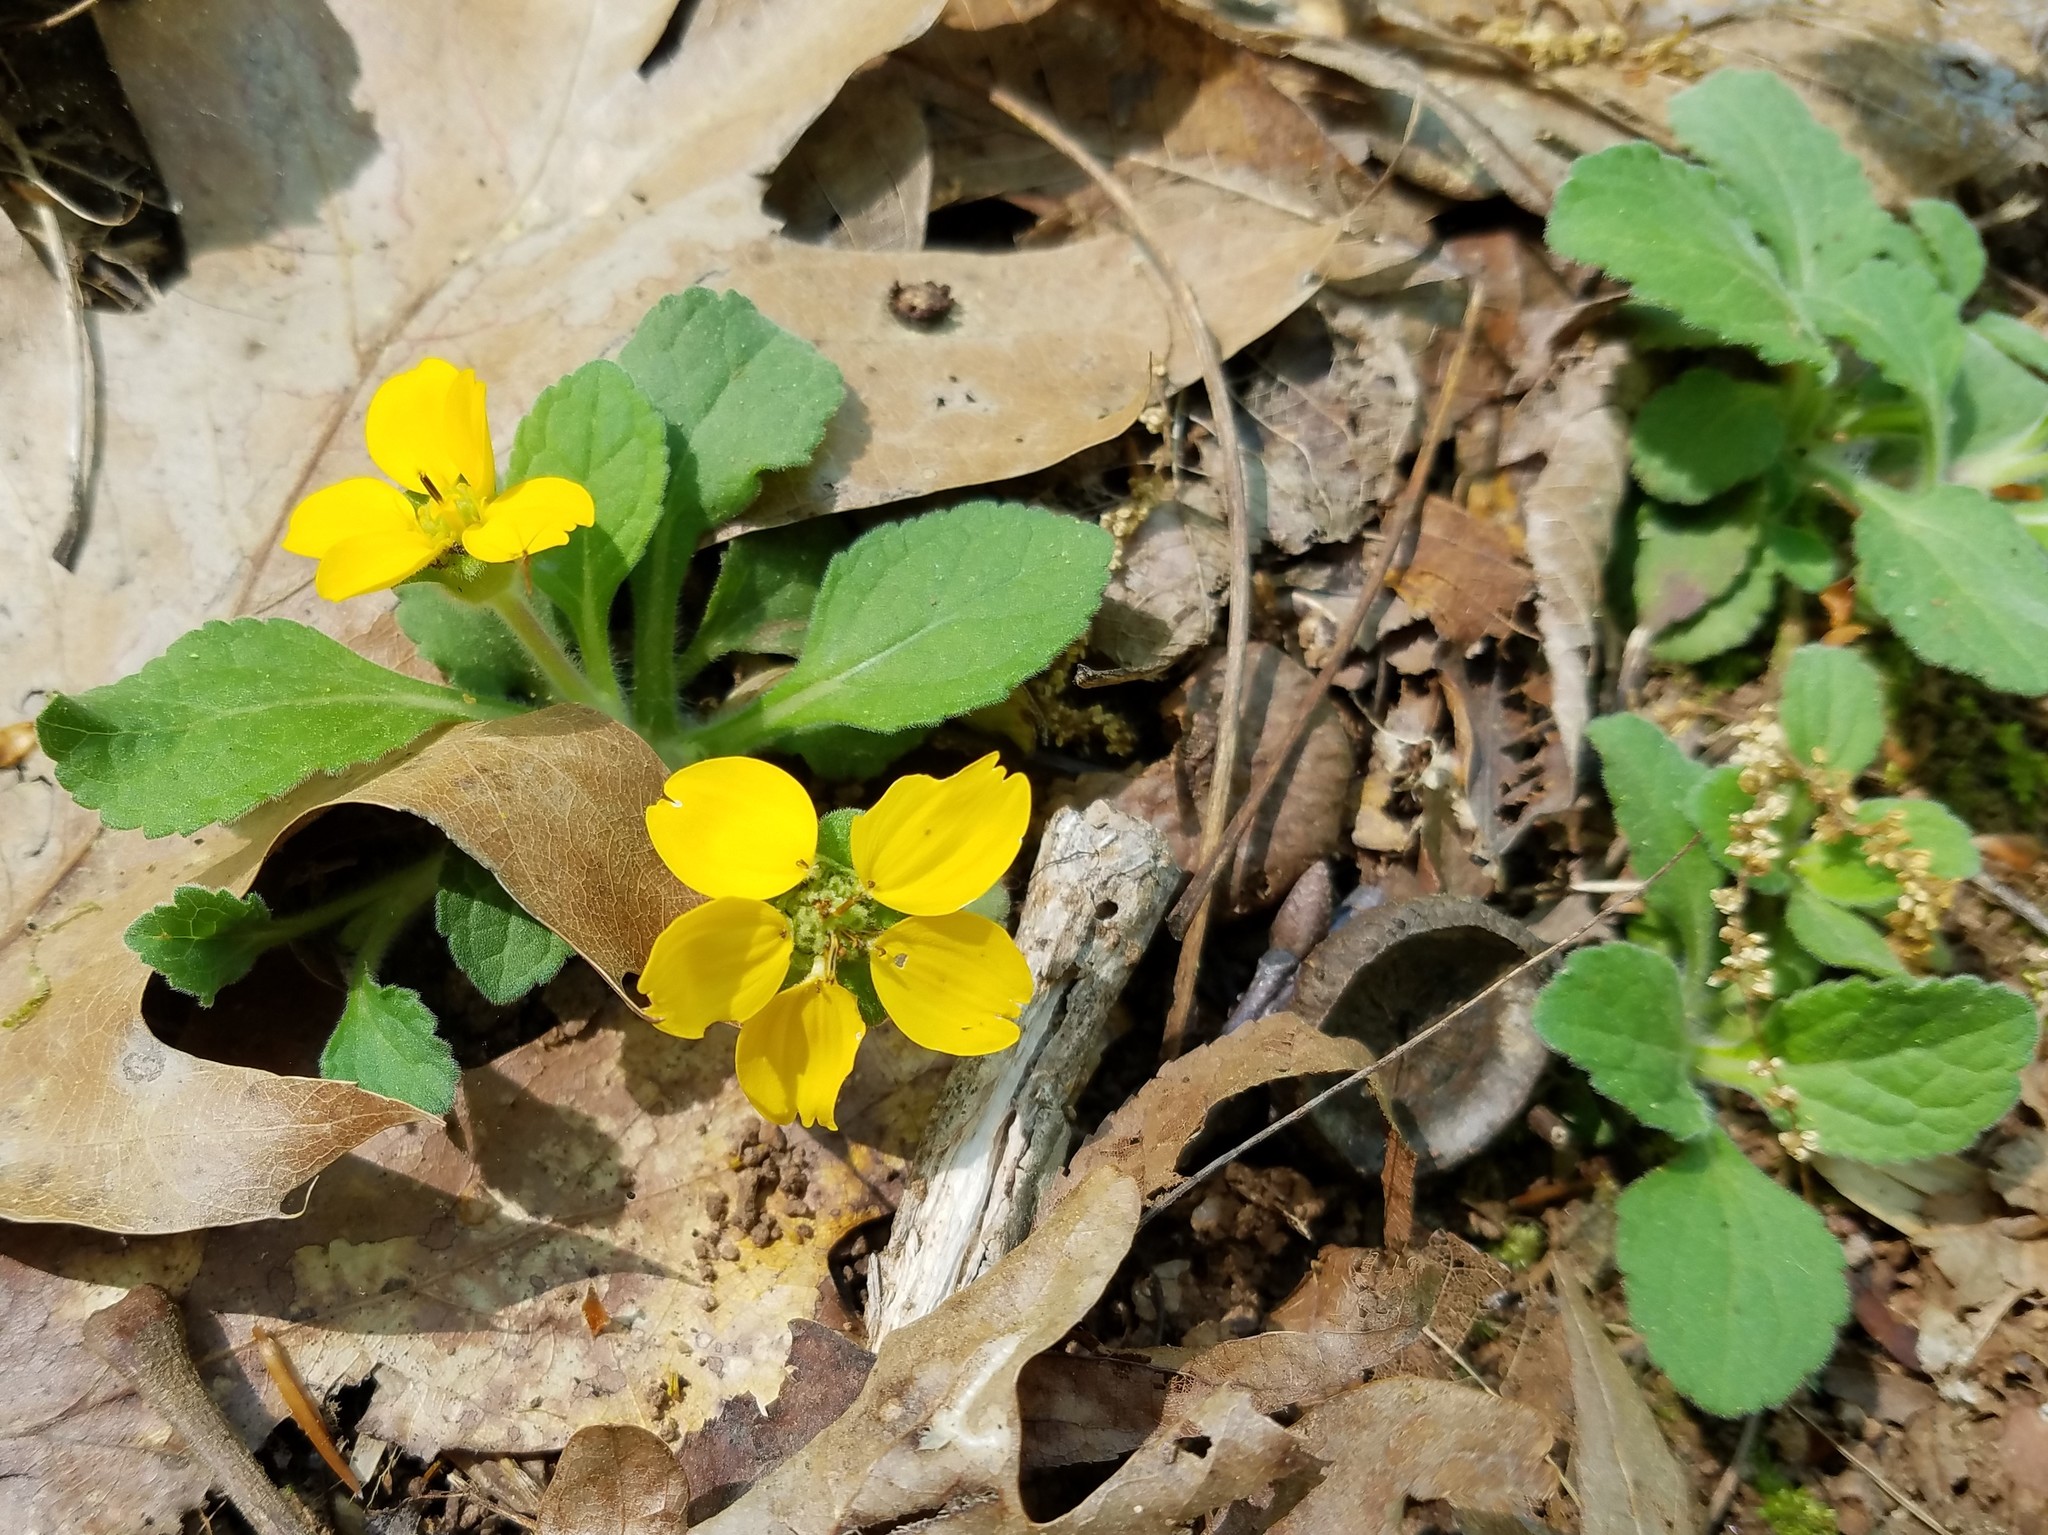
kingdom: Plantae
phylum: Tracheophyta
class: Magnoliopsida
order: Asterales
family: Asteraceae
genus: Chrysogonum
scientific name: Chrysogonum virginianum
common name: Golden-knee
